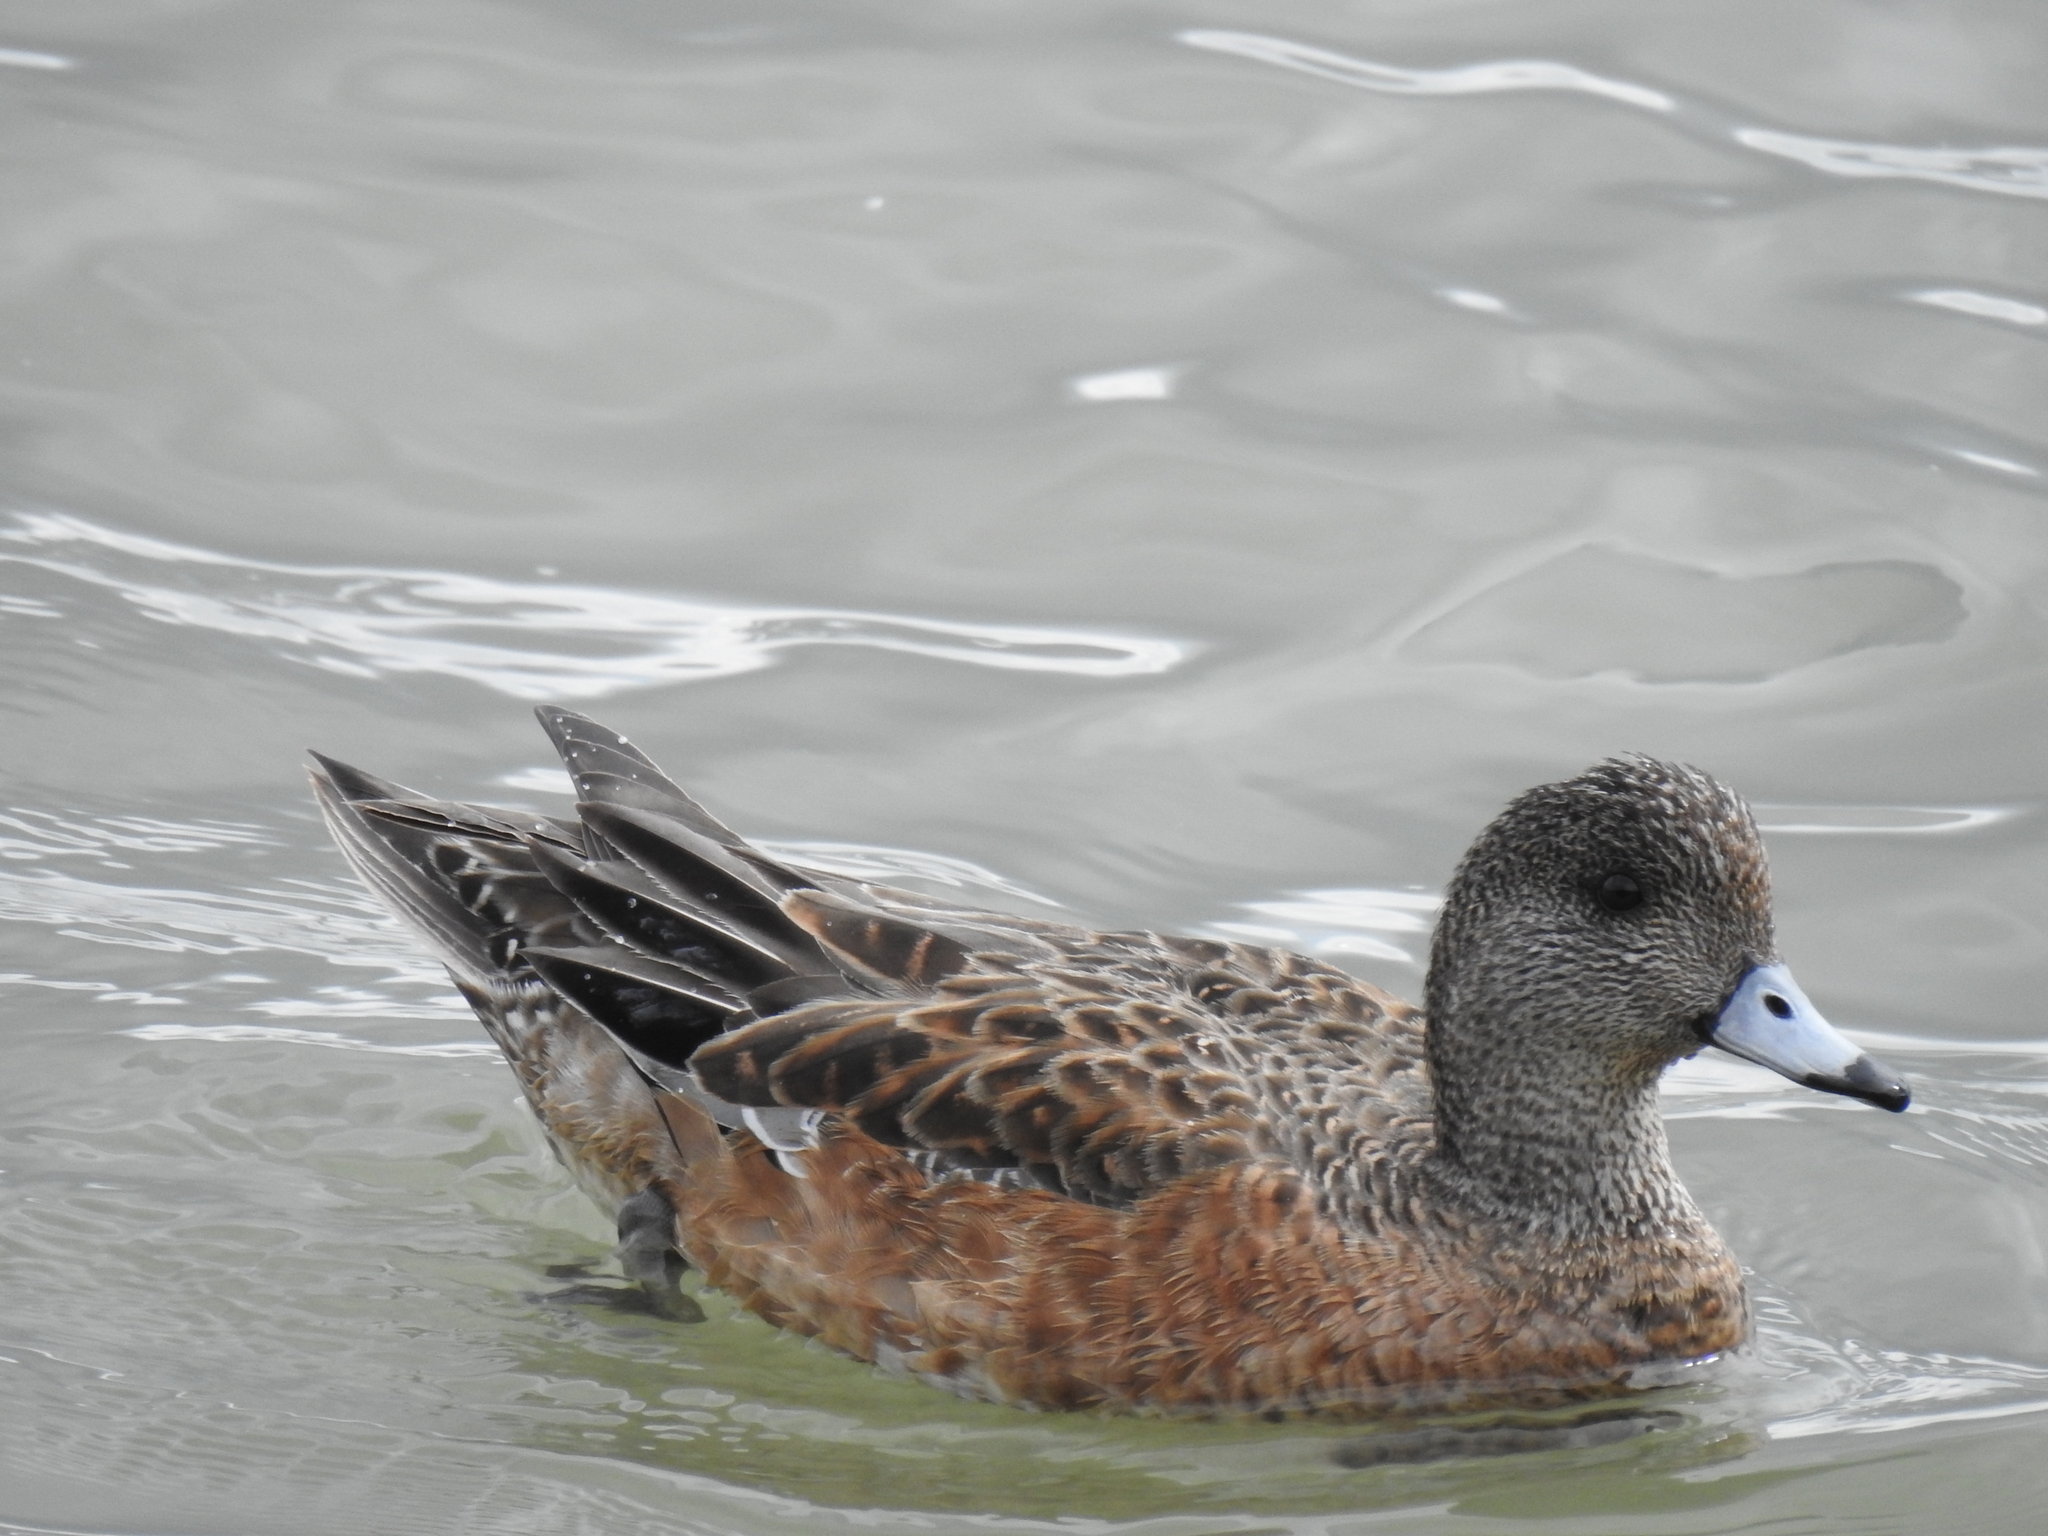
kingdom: Animalia
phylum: Chordata
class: Aves
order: Anseriformes
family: Anatidae
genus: Mareca
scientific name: Mareca americana
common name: American wigeon
